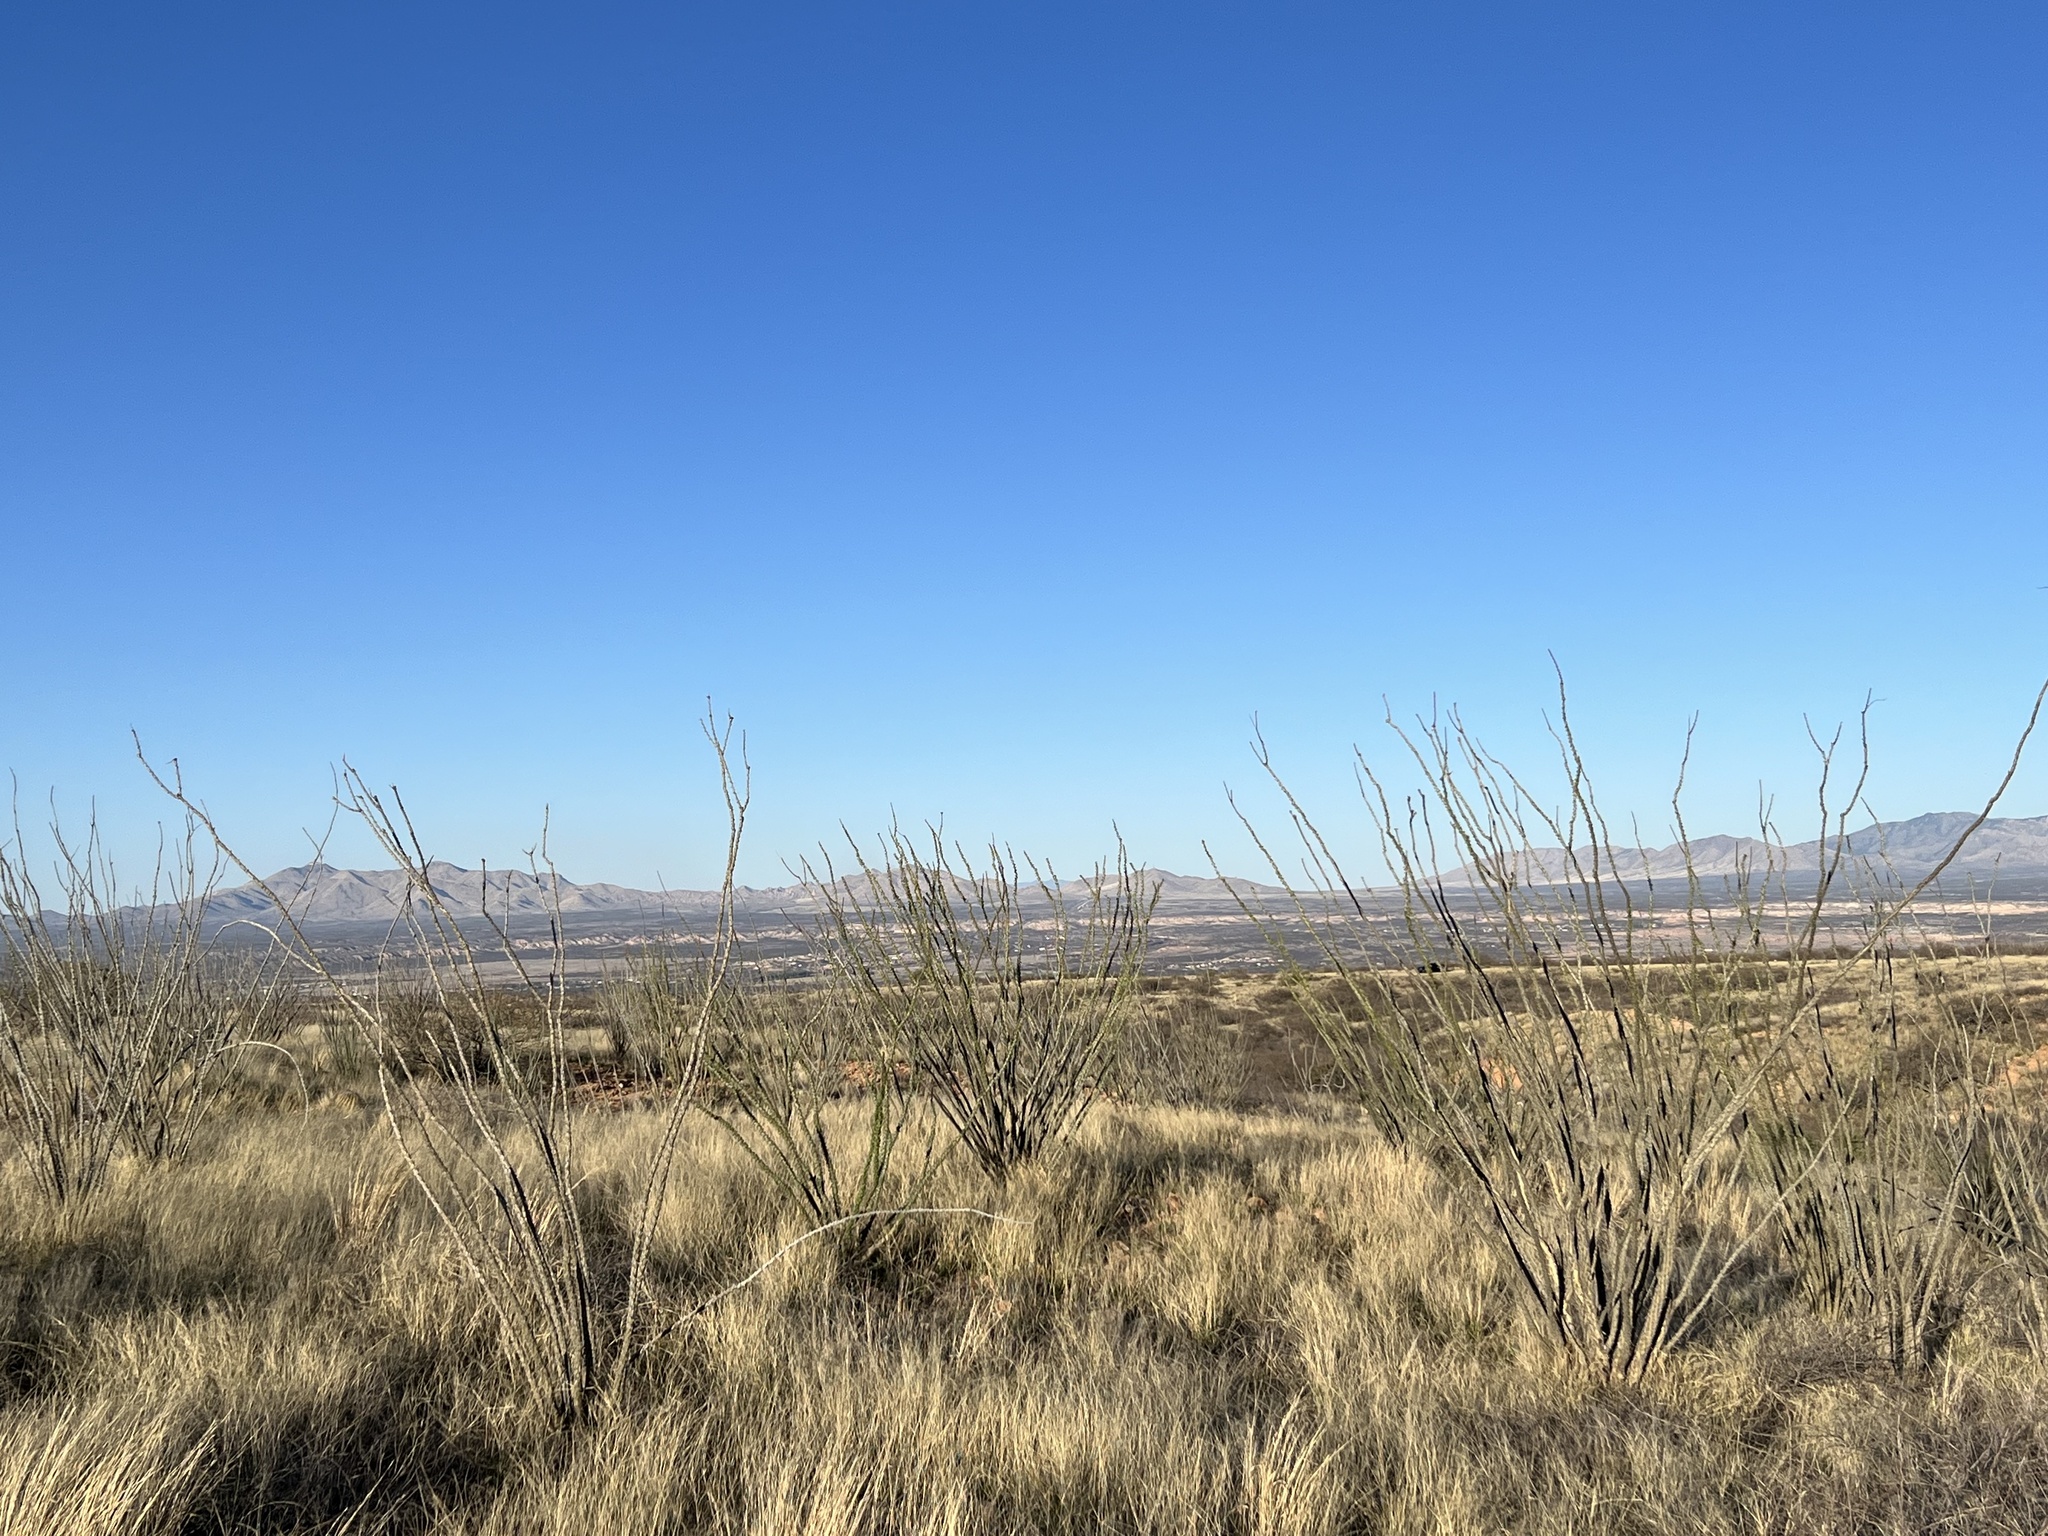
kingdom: Plantae
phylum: Tracheophyta
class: Magnoliopsida
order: Ericales
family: Fouquieriaceae
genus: Fouquieria
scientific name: Fouquieria splendens
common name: Vine-cactus
